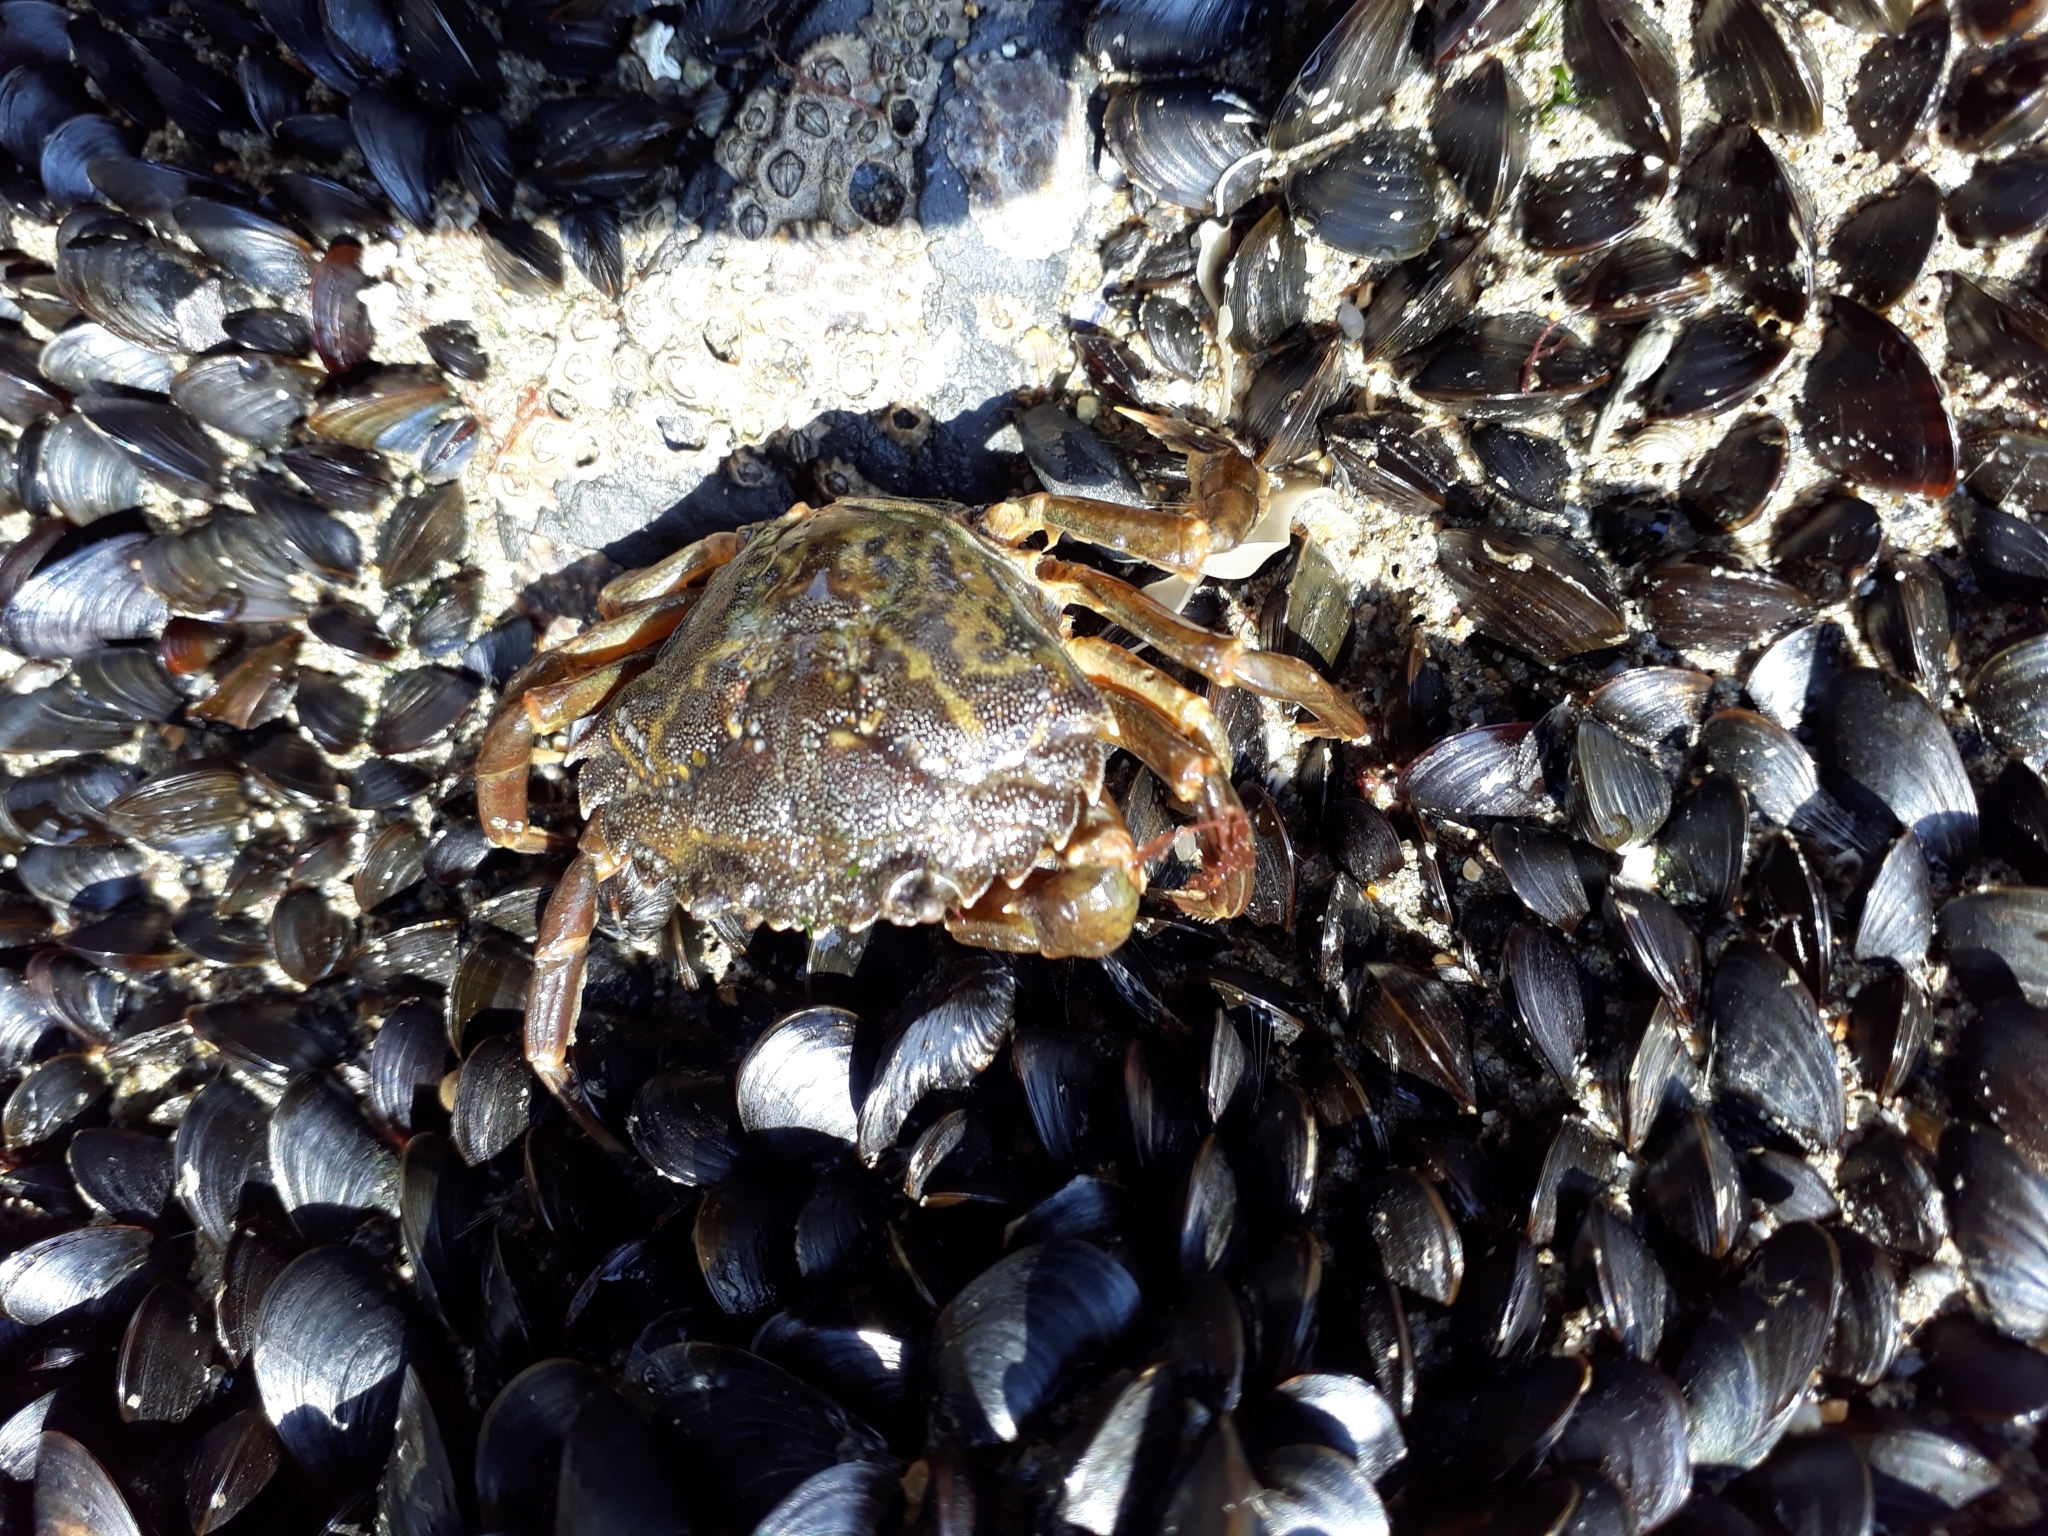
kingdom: Animalia
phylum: Arthropoda
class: Malacostraca
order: Decapoda
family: Carcinidae
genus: Carcinus
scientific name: Carcinus maenas
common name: European green crab
